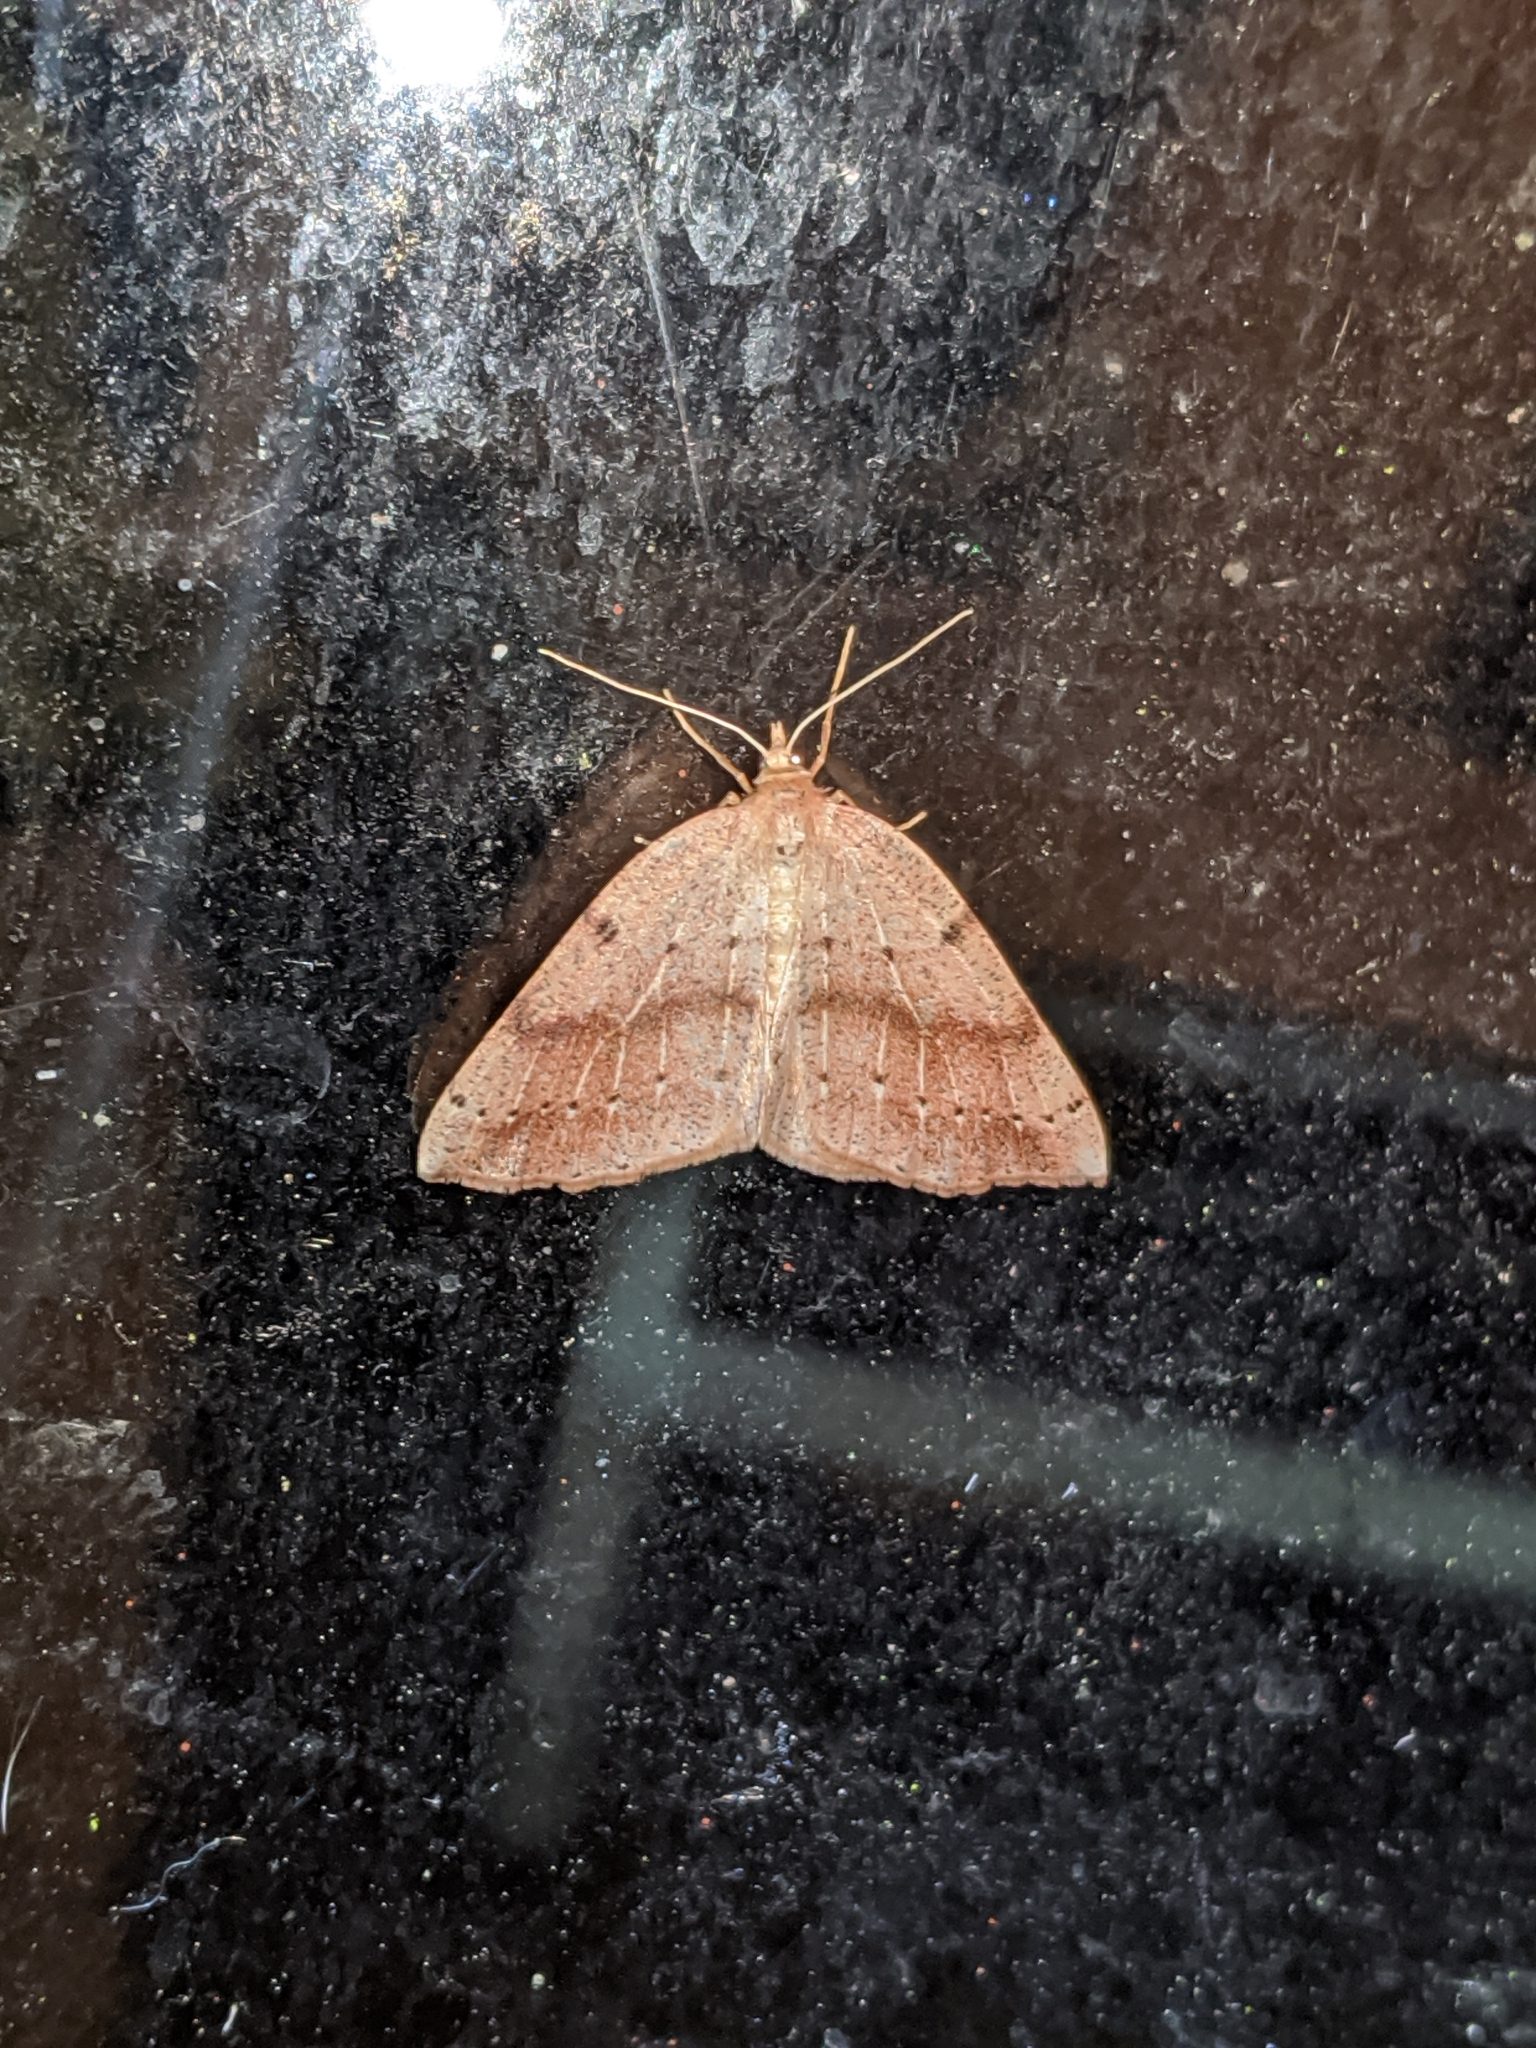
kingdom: Animalia
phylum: Arthropoda
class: Insecta
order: Lepidoptera
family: Geometridae
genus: Thallophaga
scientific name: Thallophaga hyperborea
